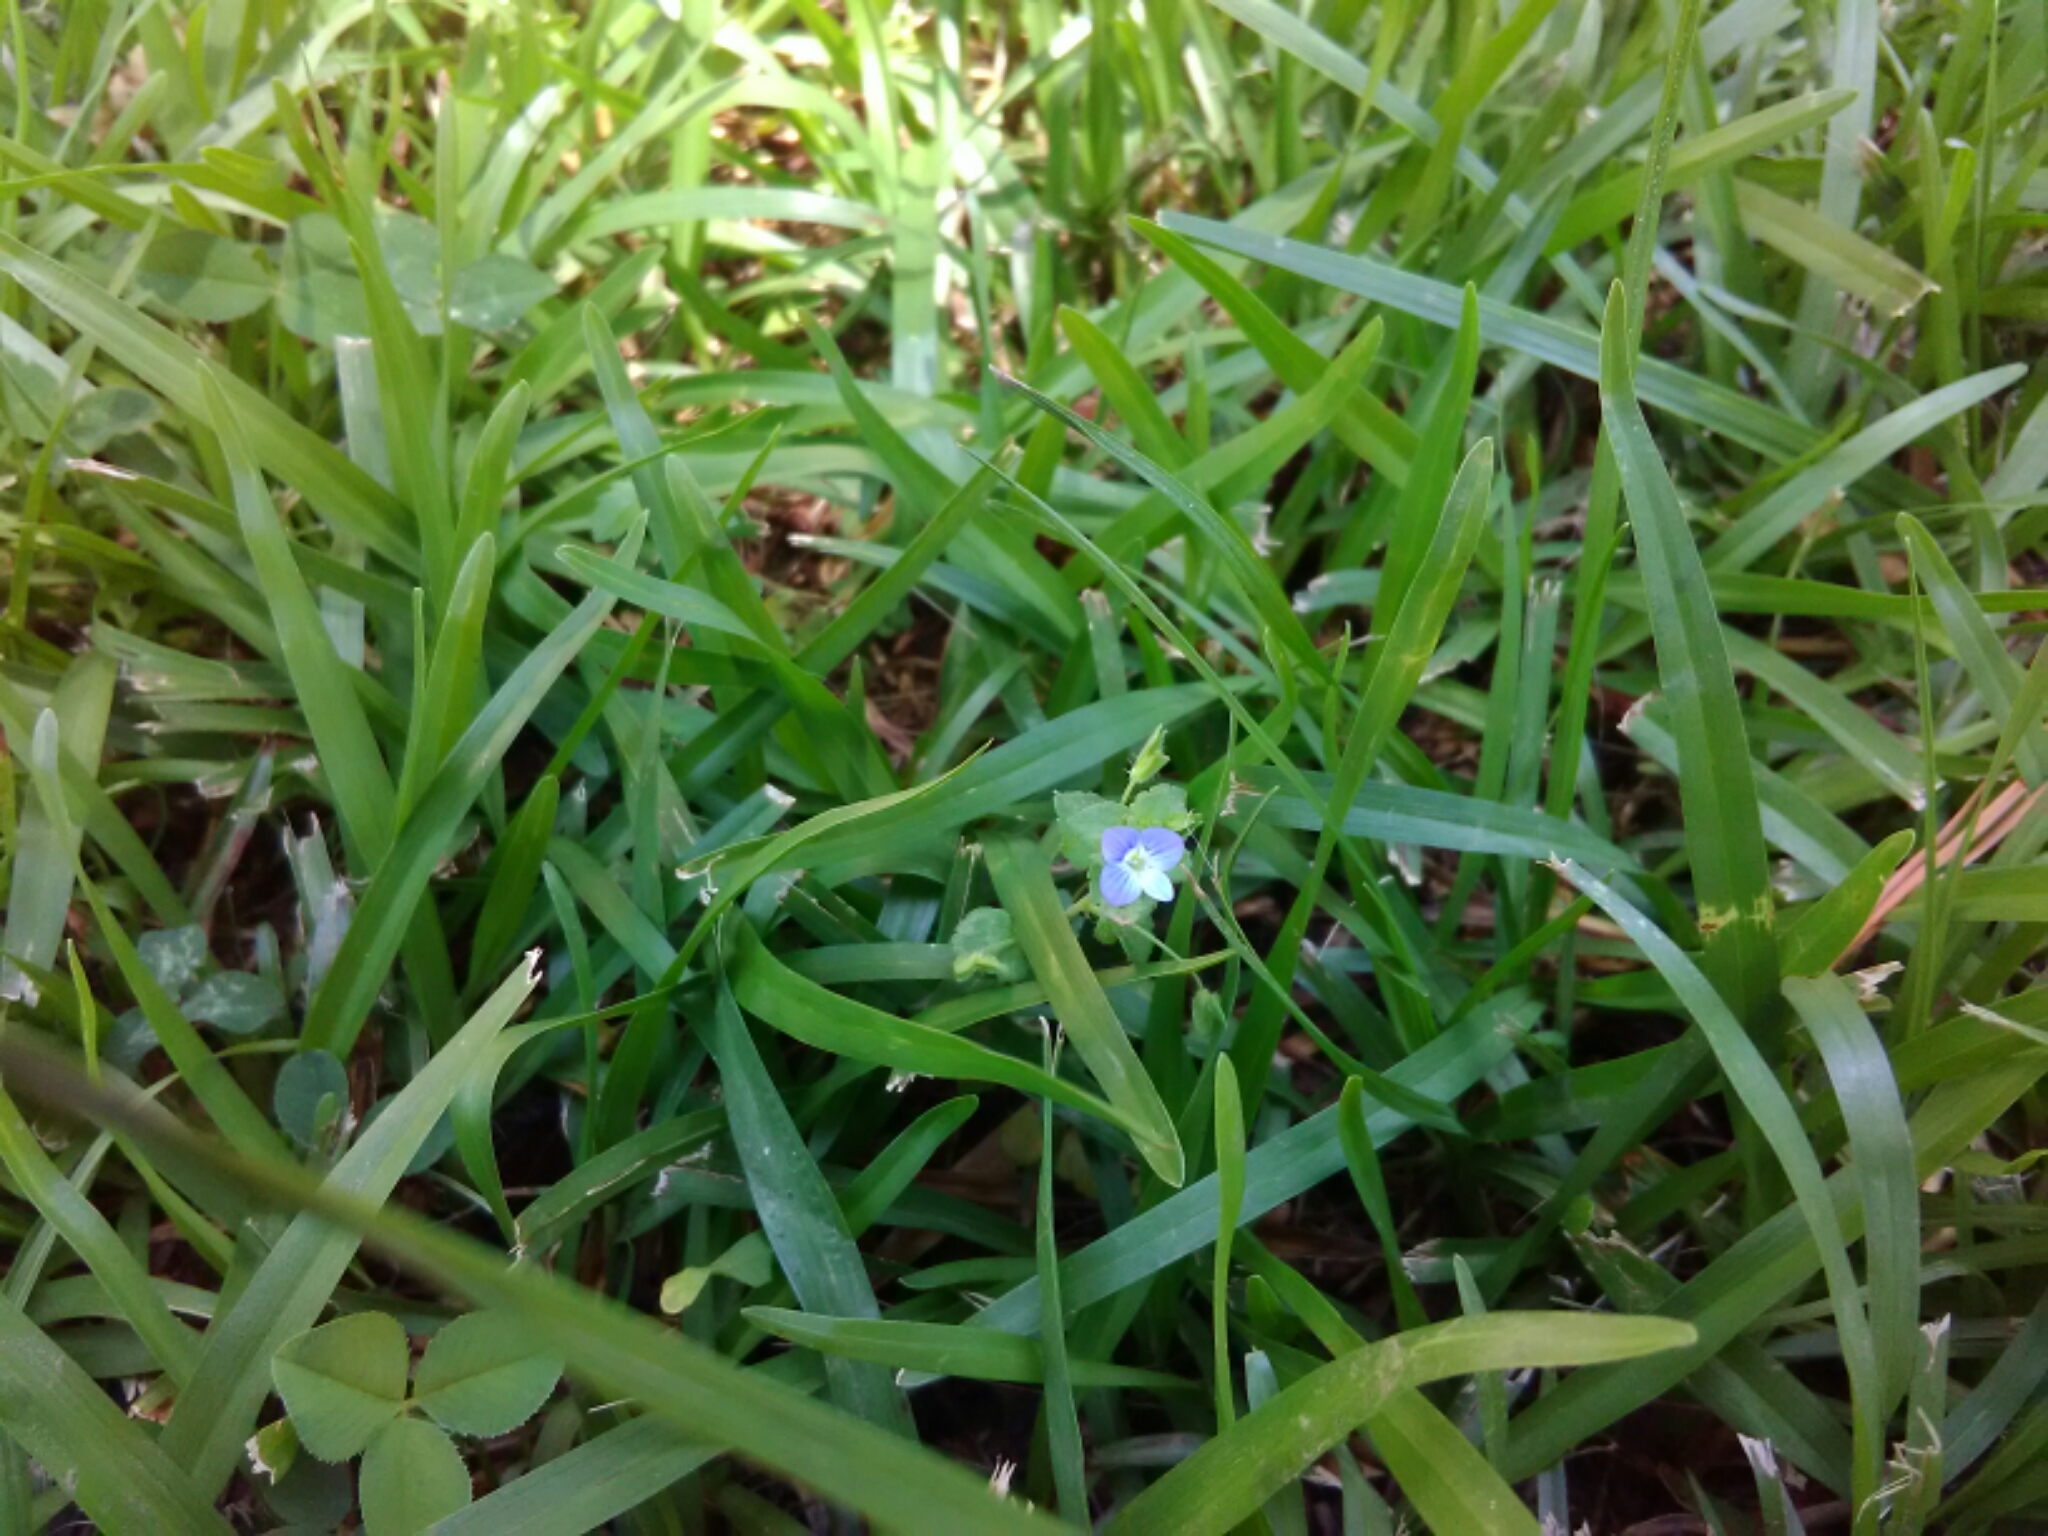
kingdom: Plantae
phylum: Tracheophyta
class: Magnoliopsida
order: Lamiales
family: Plantaginaceae
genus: Veronica
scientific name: Veronica persica
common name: Common field-speedwell
